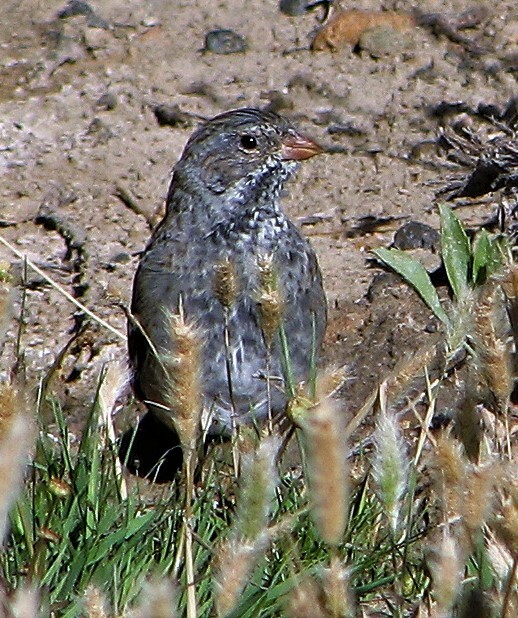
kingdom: Animalia
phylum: Chordata
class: Aves
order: Passeriformes
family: Thraupidae
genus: Rhopospina
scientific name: Rhopospina fruticeti
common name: Mourning sierra finch
